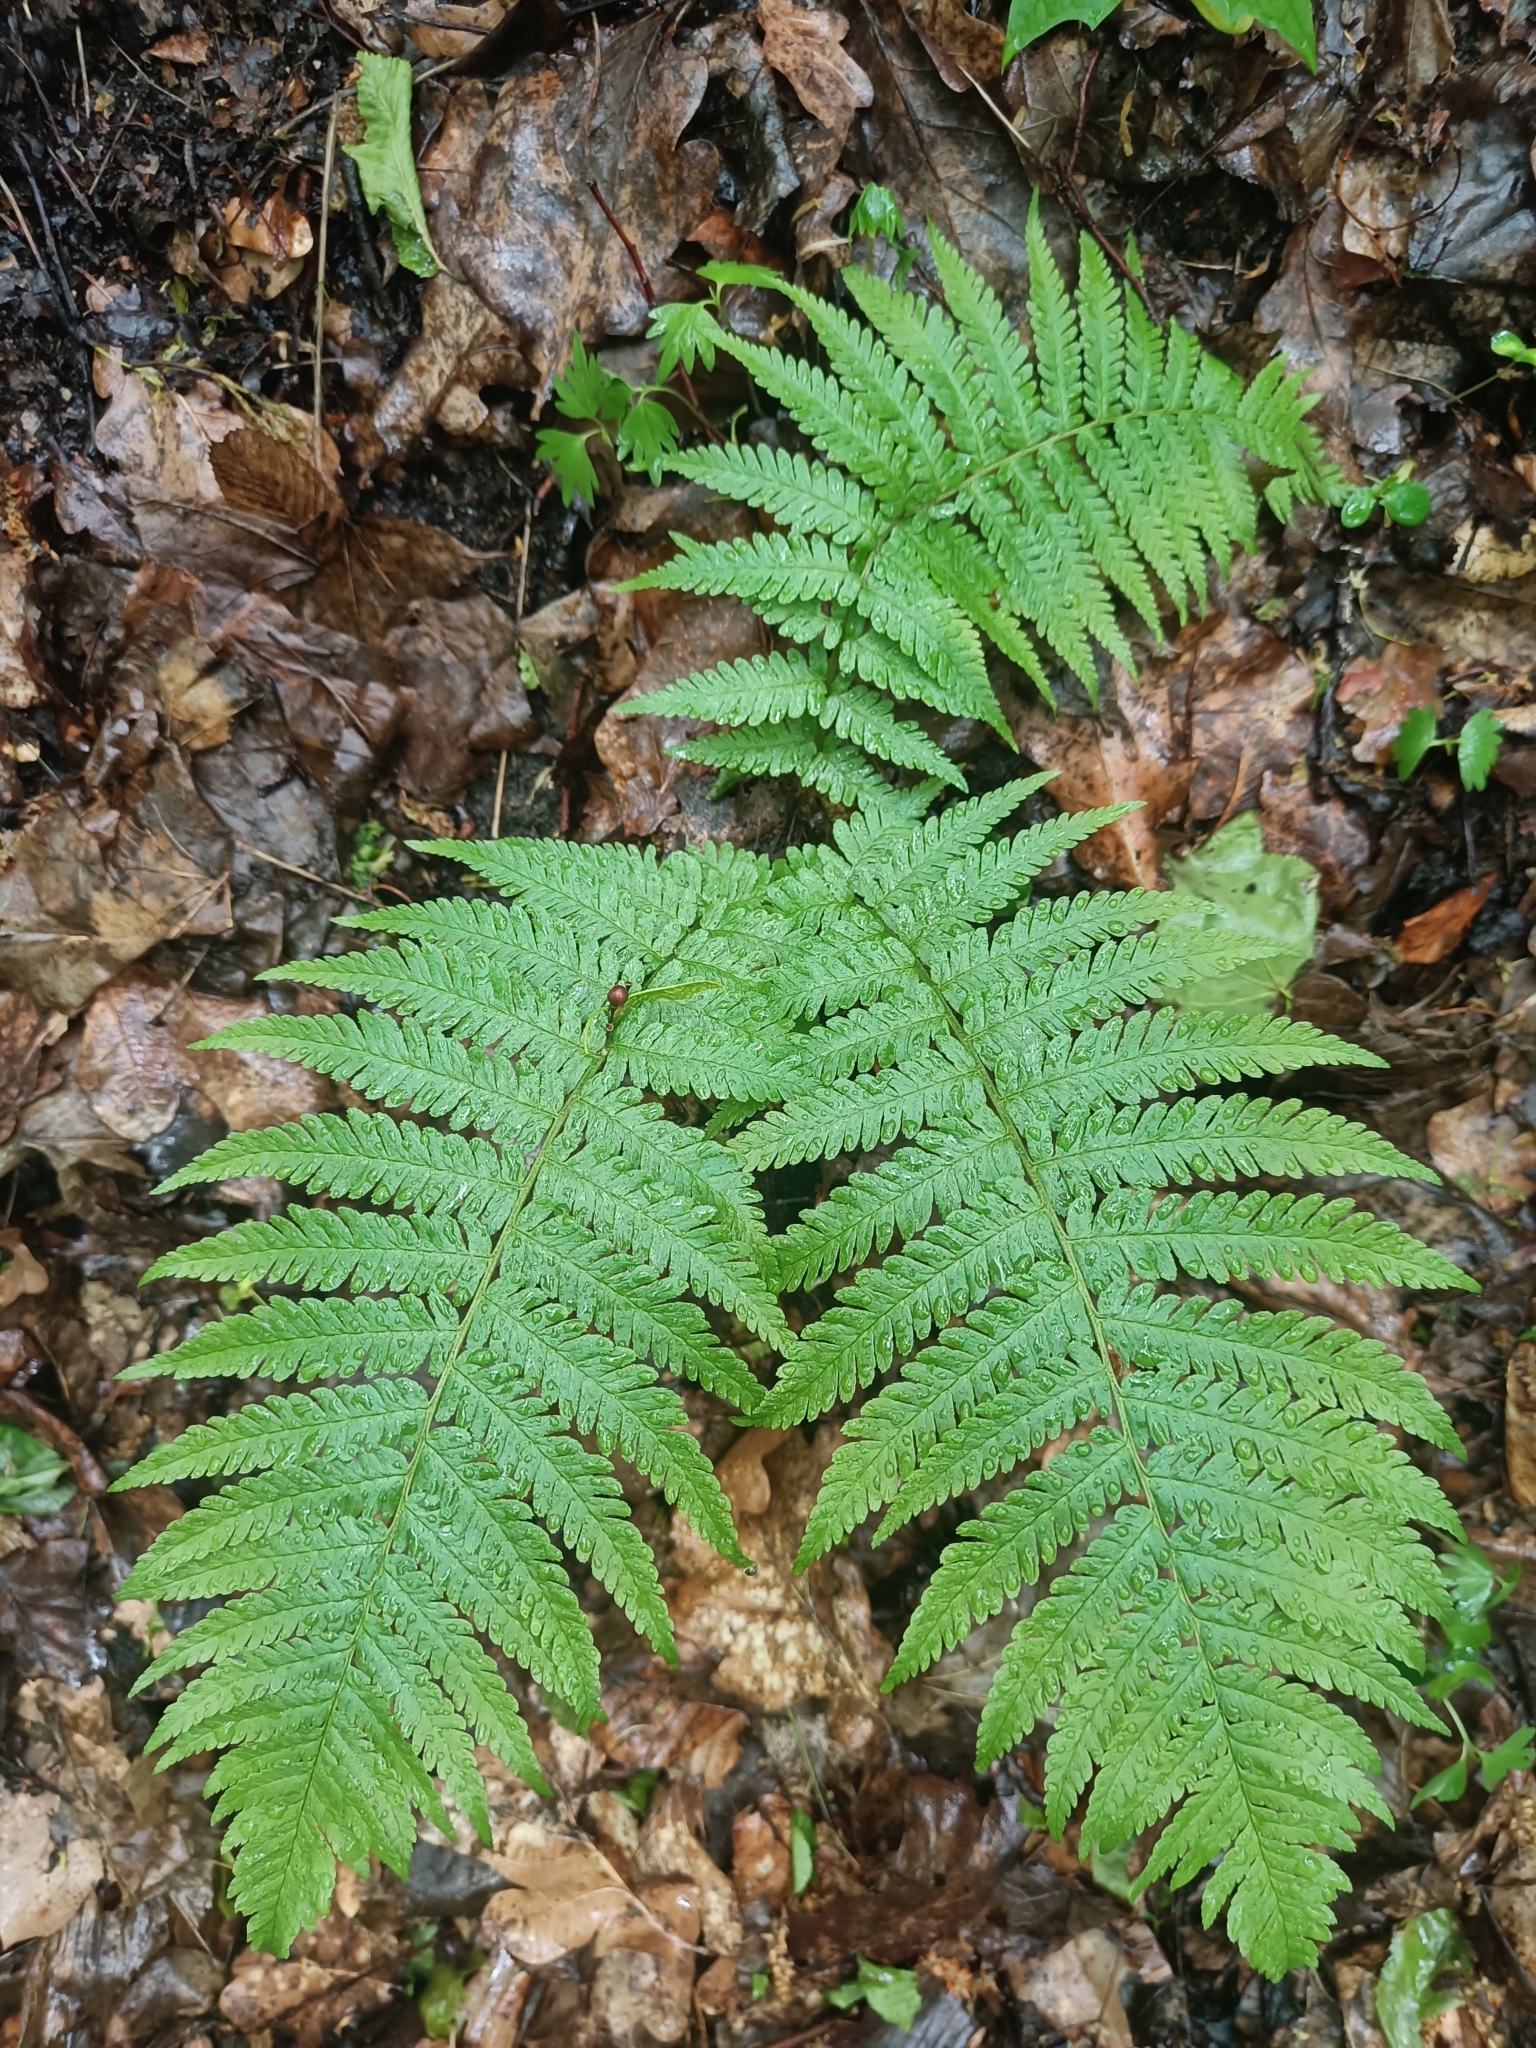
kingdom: Plantae
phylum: Tracheophyta
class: Polypodiopsida
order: Polypodiales
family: Dryopteridaceae
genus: Dryopteris
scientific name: Dryopteris filix-mas
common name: Male fern
